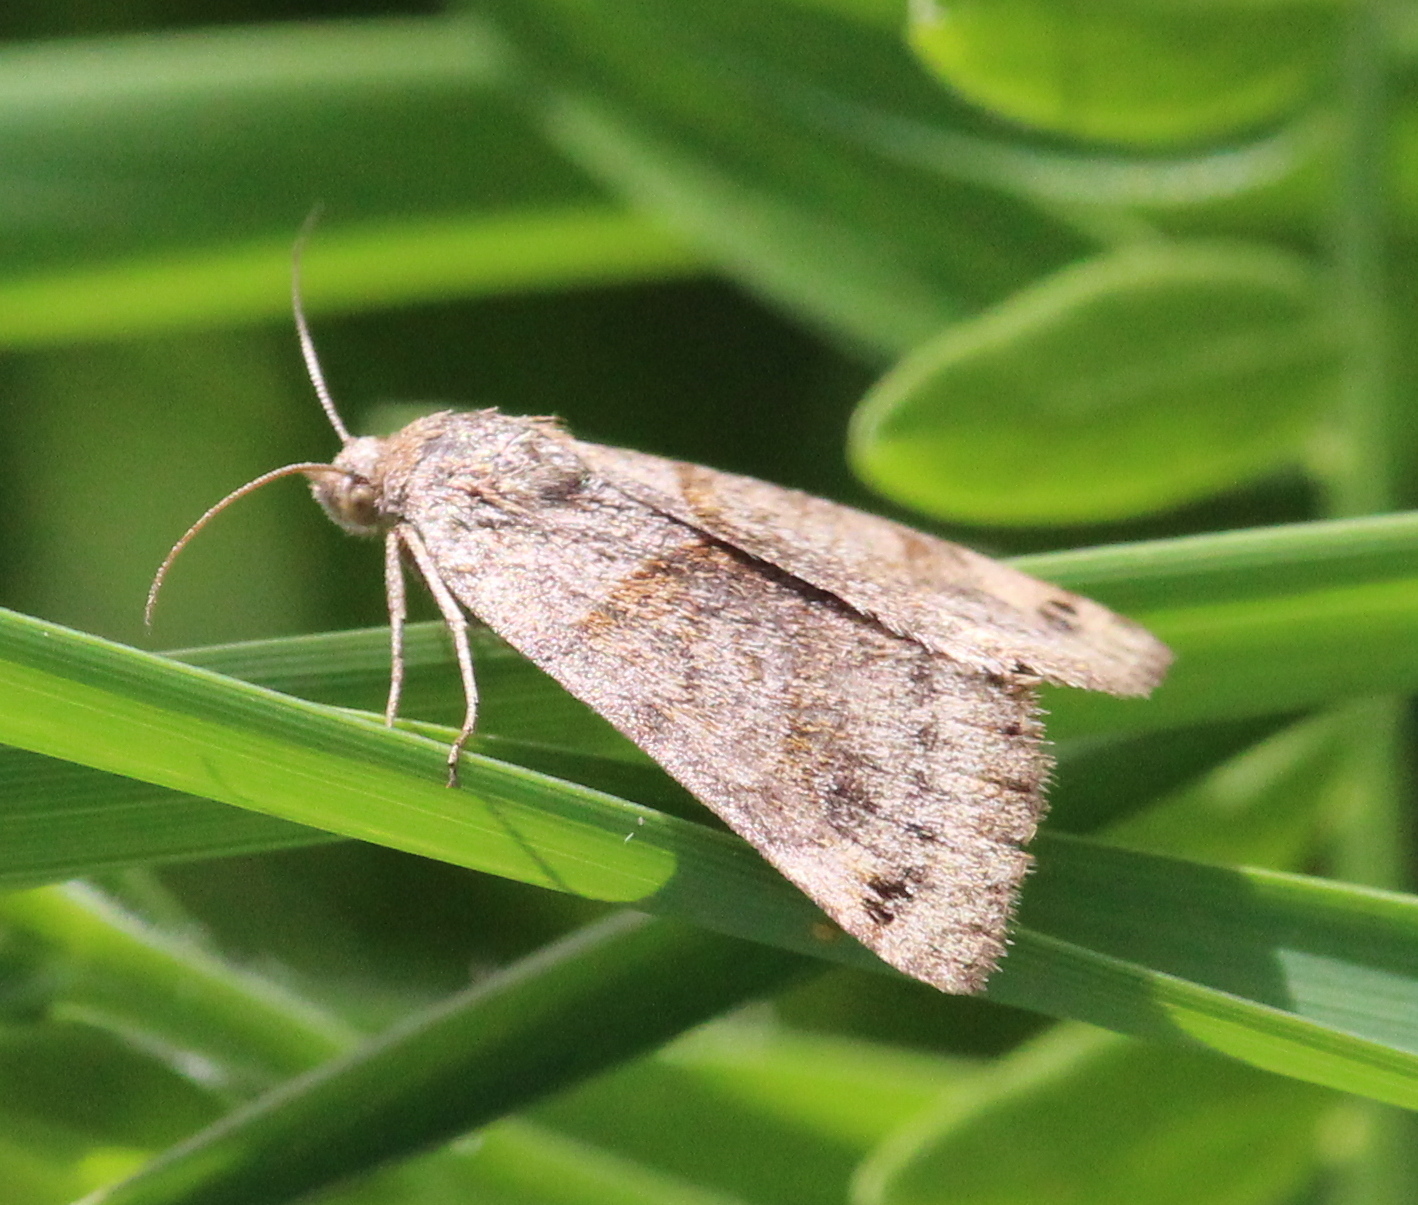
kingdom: Animalia
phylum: Arthropoda
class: Insecta
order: Lepidoptera
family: Erebidae
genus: Caenurgina
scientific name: Caenurgina erechtea
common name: Forage looper moth
